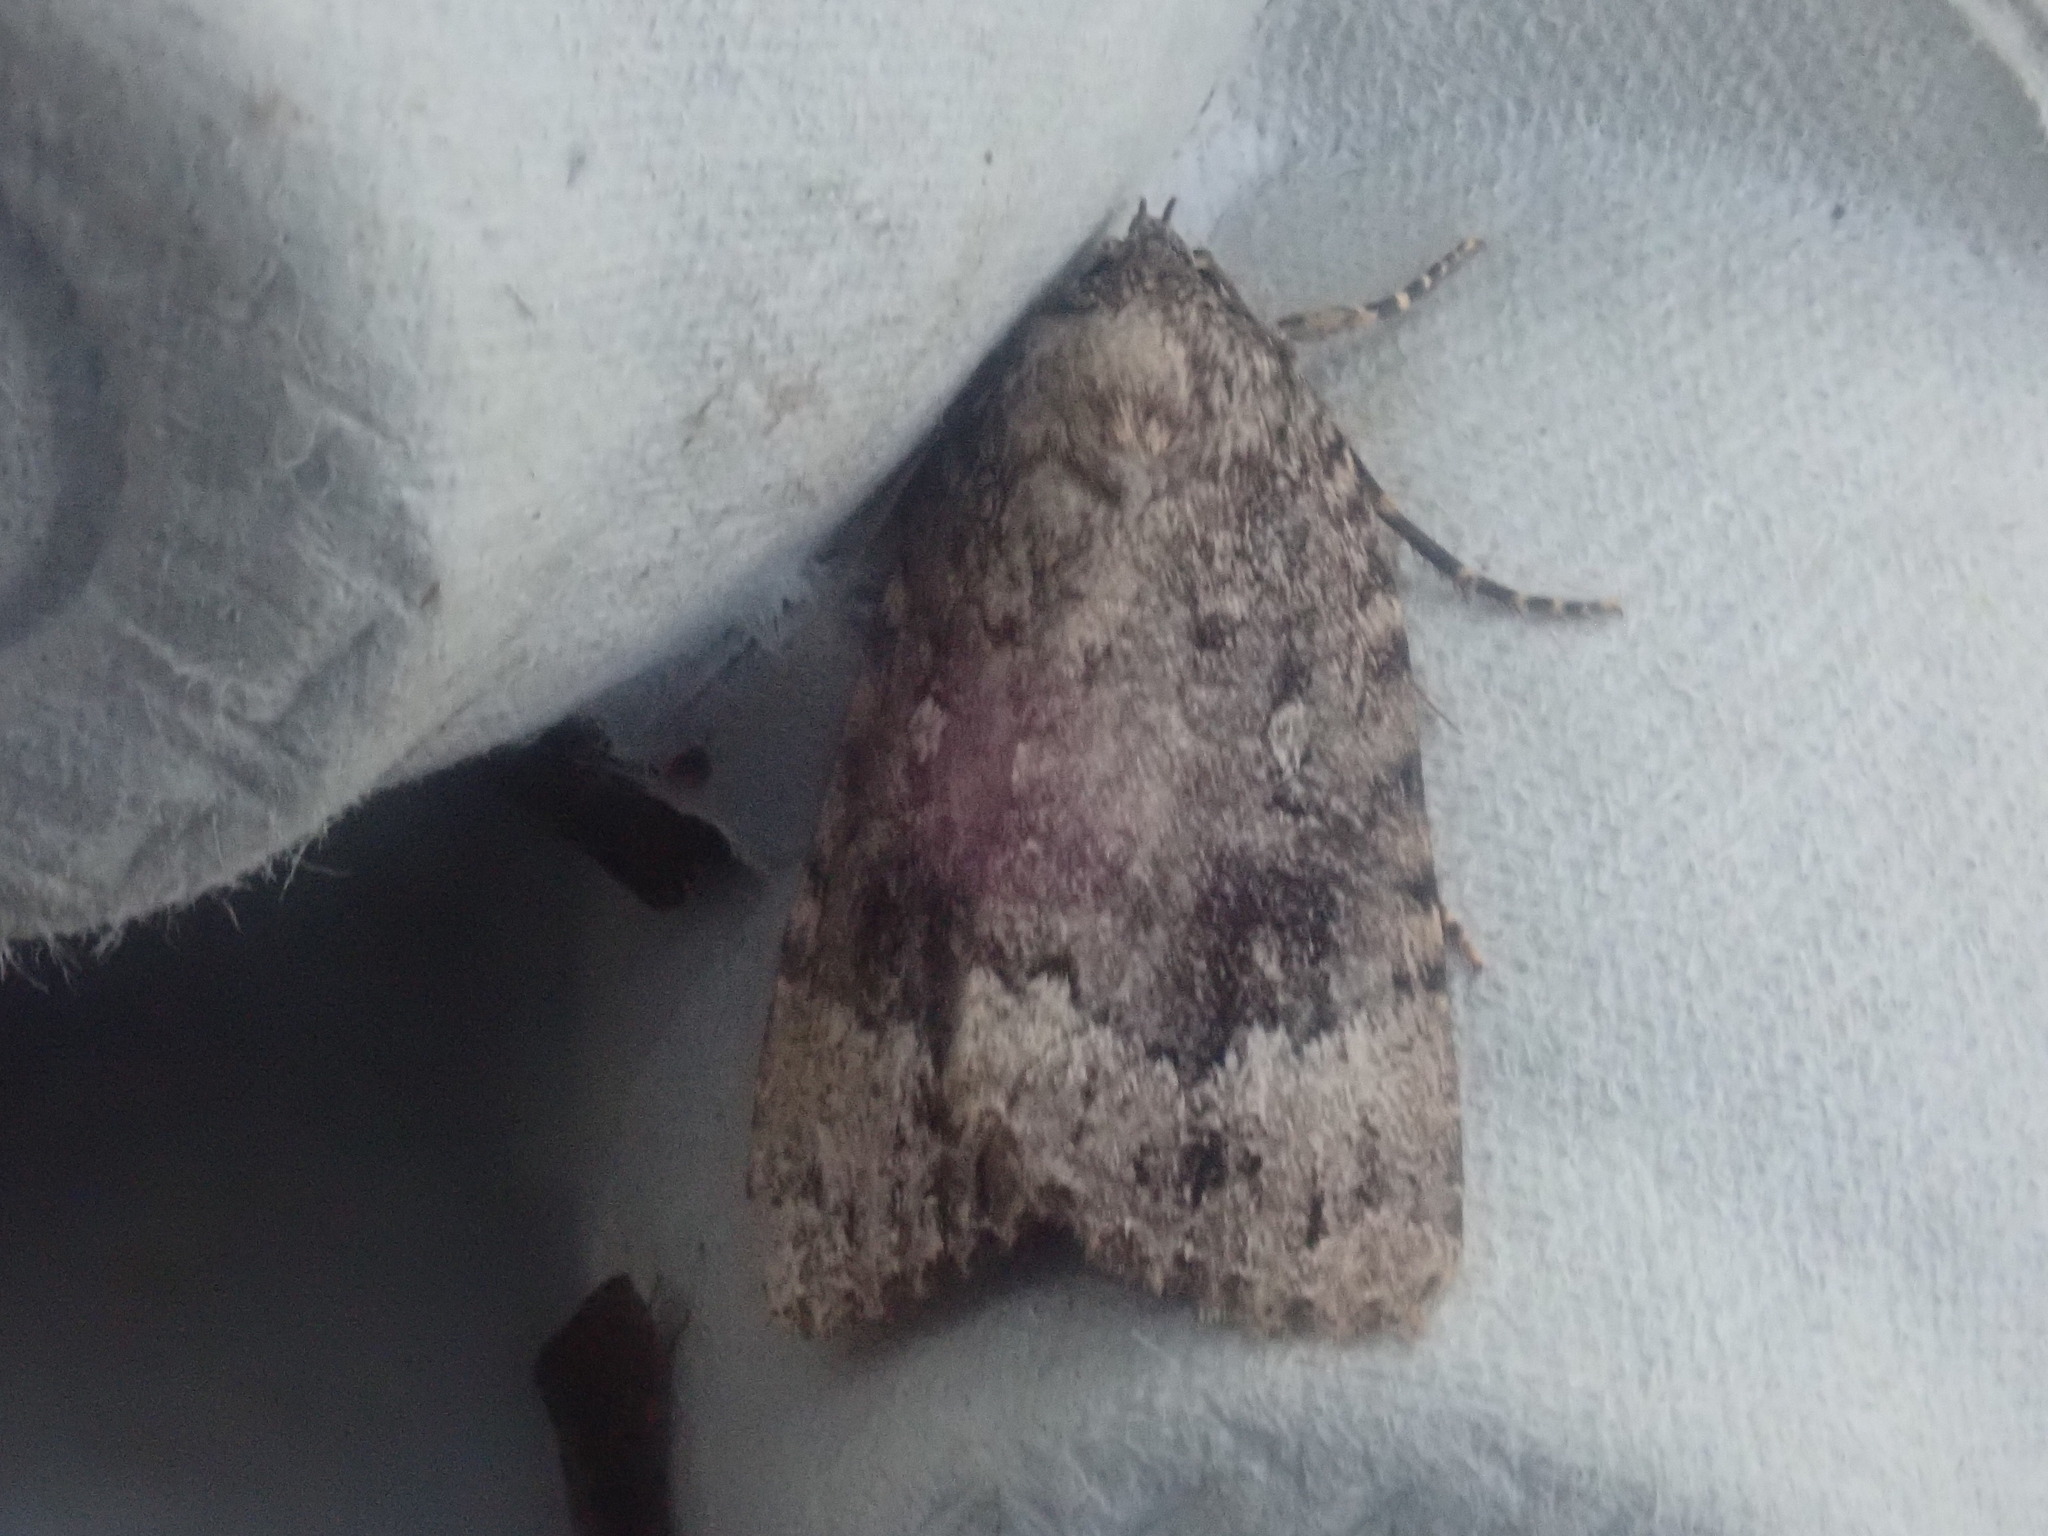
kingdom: Animalia
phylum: Arthropoda
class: Insecta
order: Lepidoptera
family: Noctuidae
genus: Amphipyra
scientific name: Amphipyra pyramidoides
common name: American copper underwing
